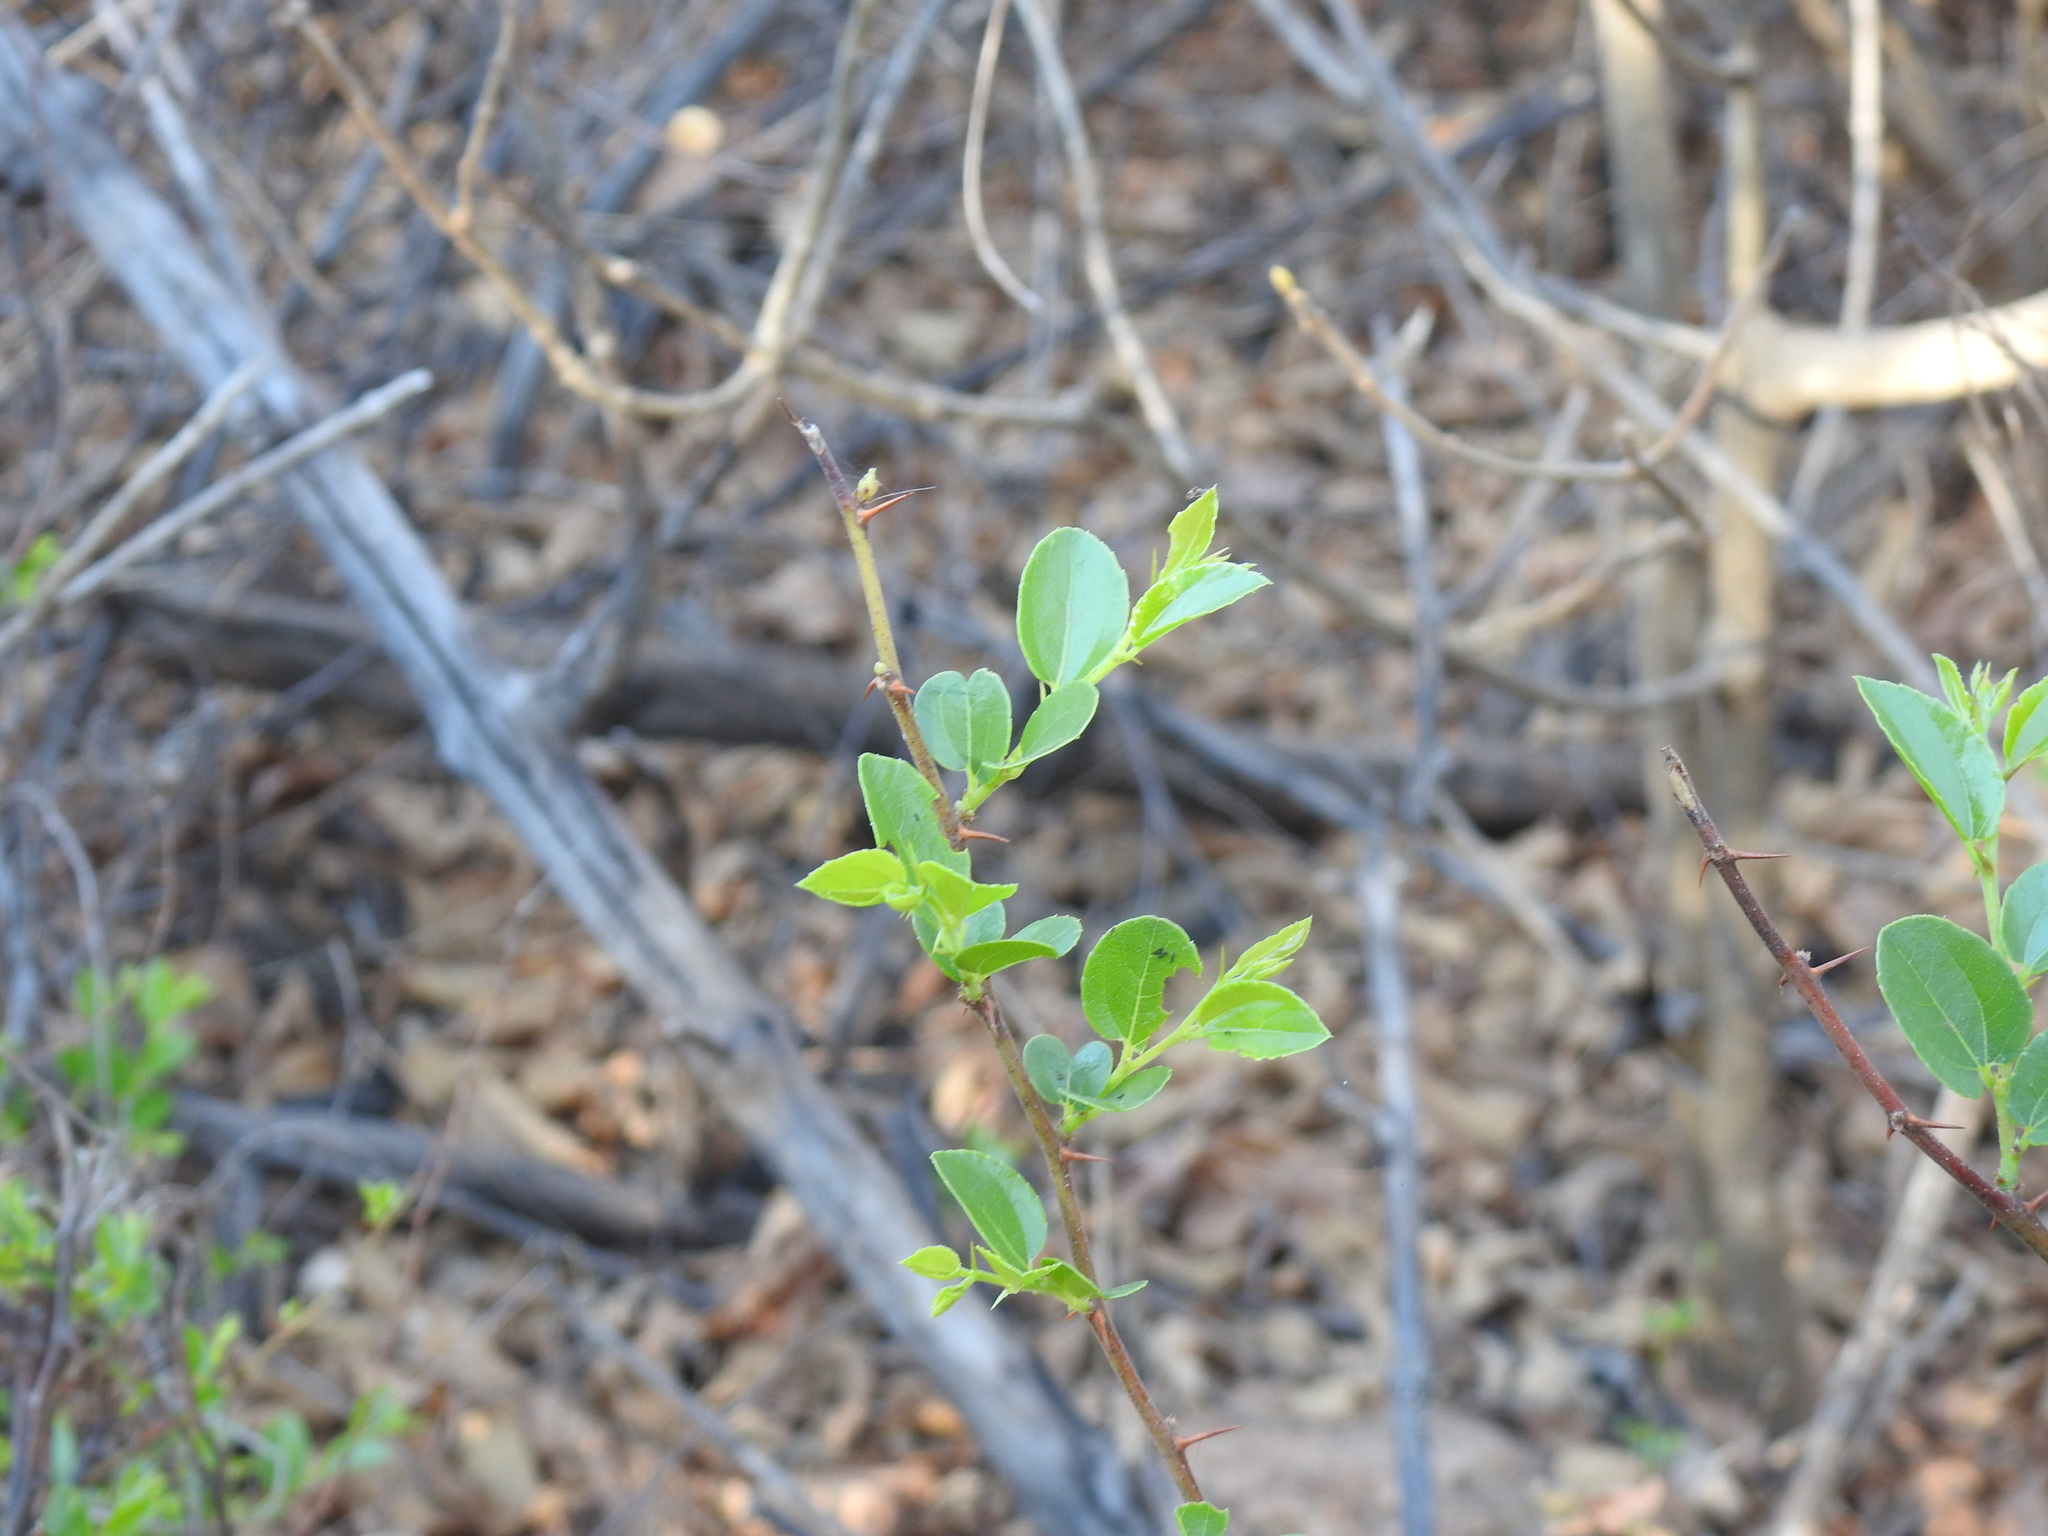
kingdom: Plantae
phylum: Tracheophyta
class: Magnoliopsida
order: Rosales
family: Rhamnaceae
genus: Ziziphus
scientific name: Ziziphus mucronata
